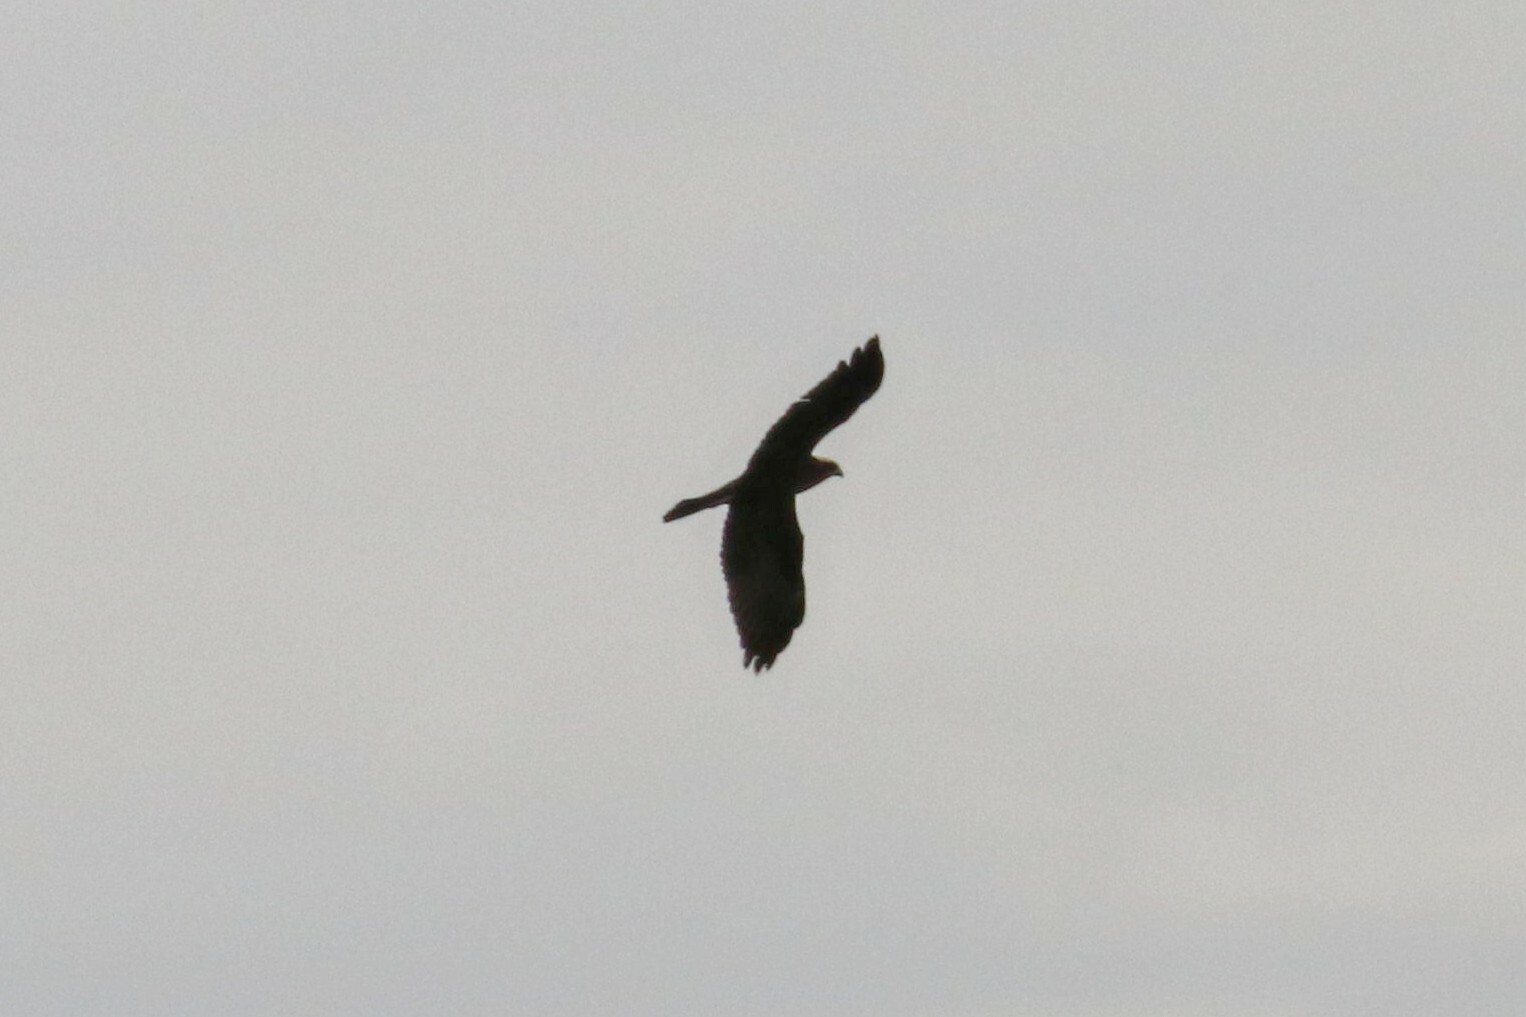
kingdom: Animalia
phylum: Chordata
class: Aves
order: Accipitriformes
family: Accipitridae
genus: Circus
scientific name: Circus aeruginosus
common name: Western marsh harrier
